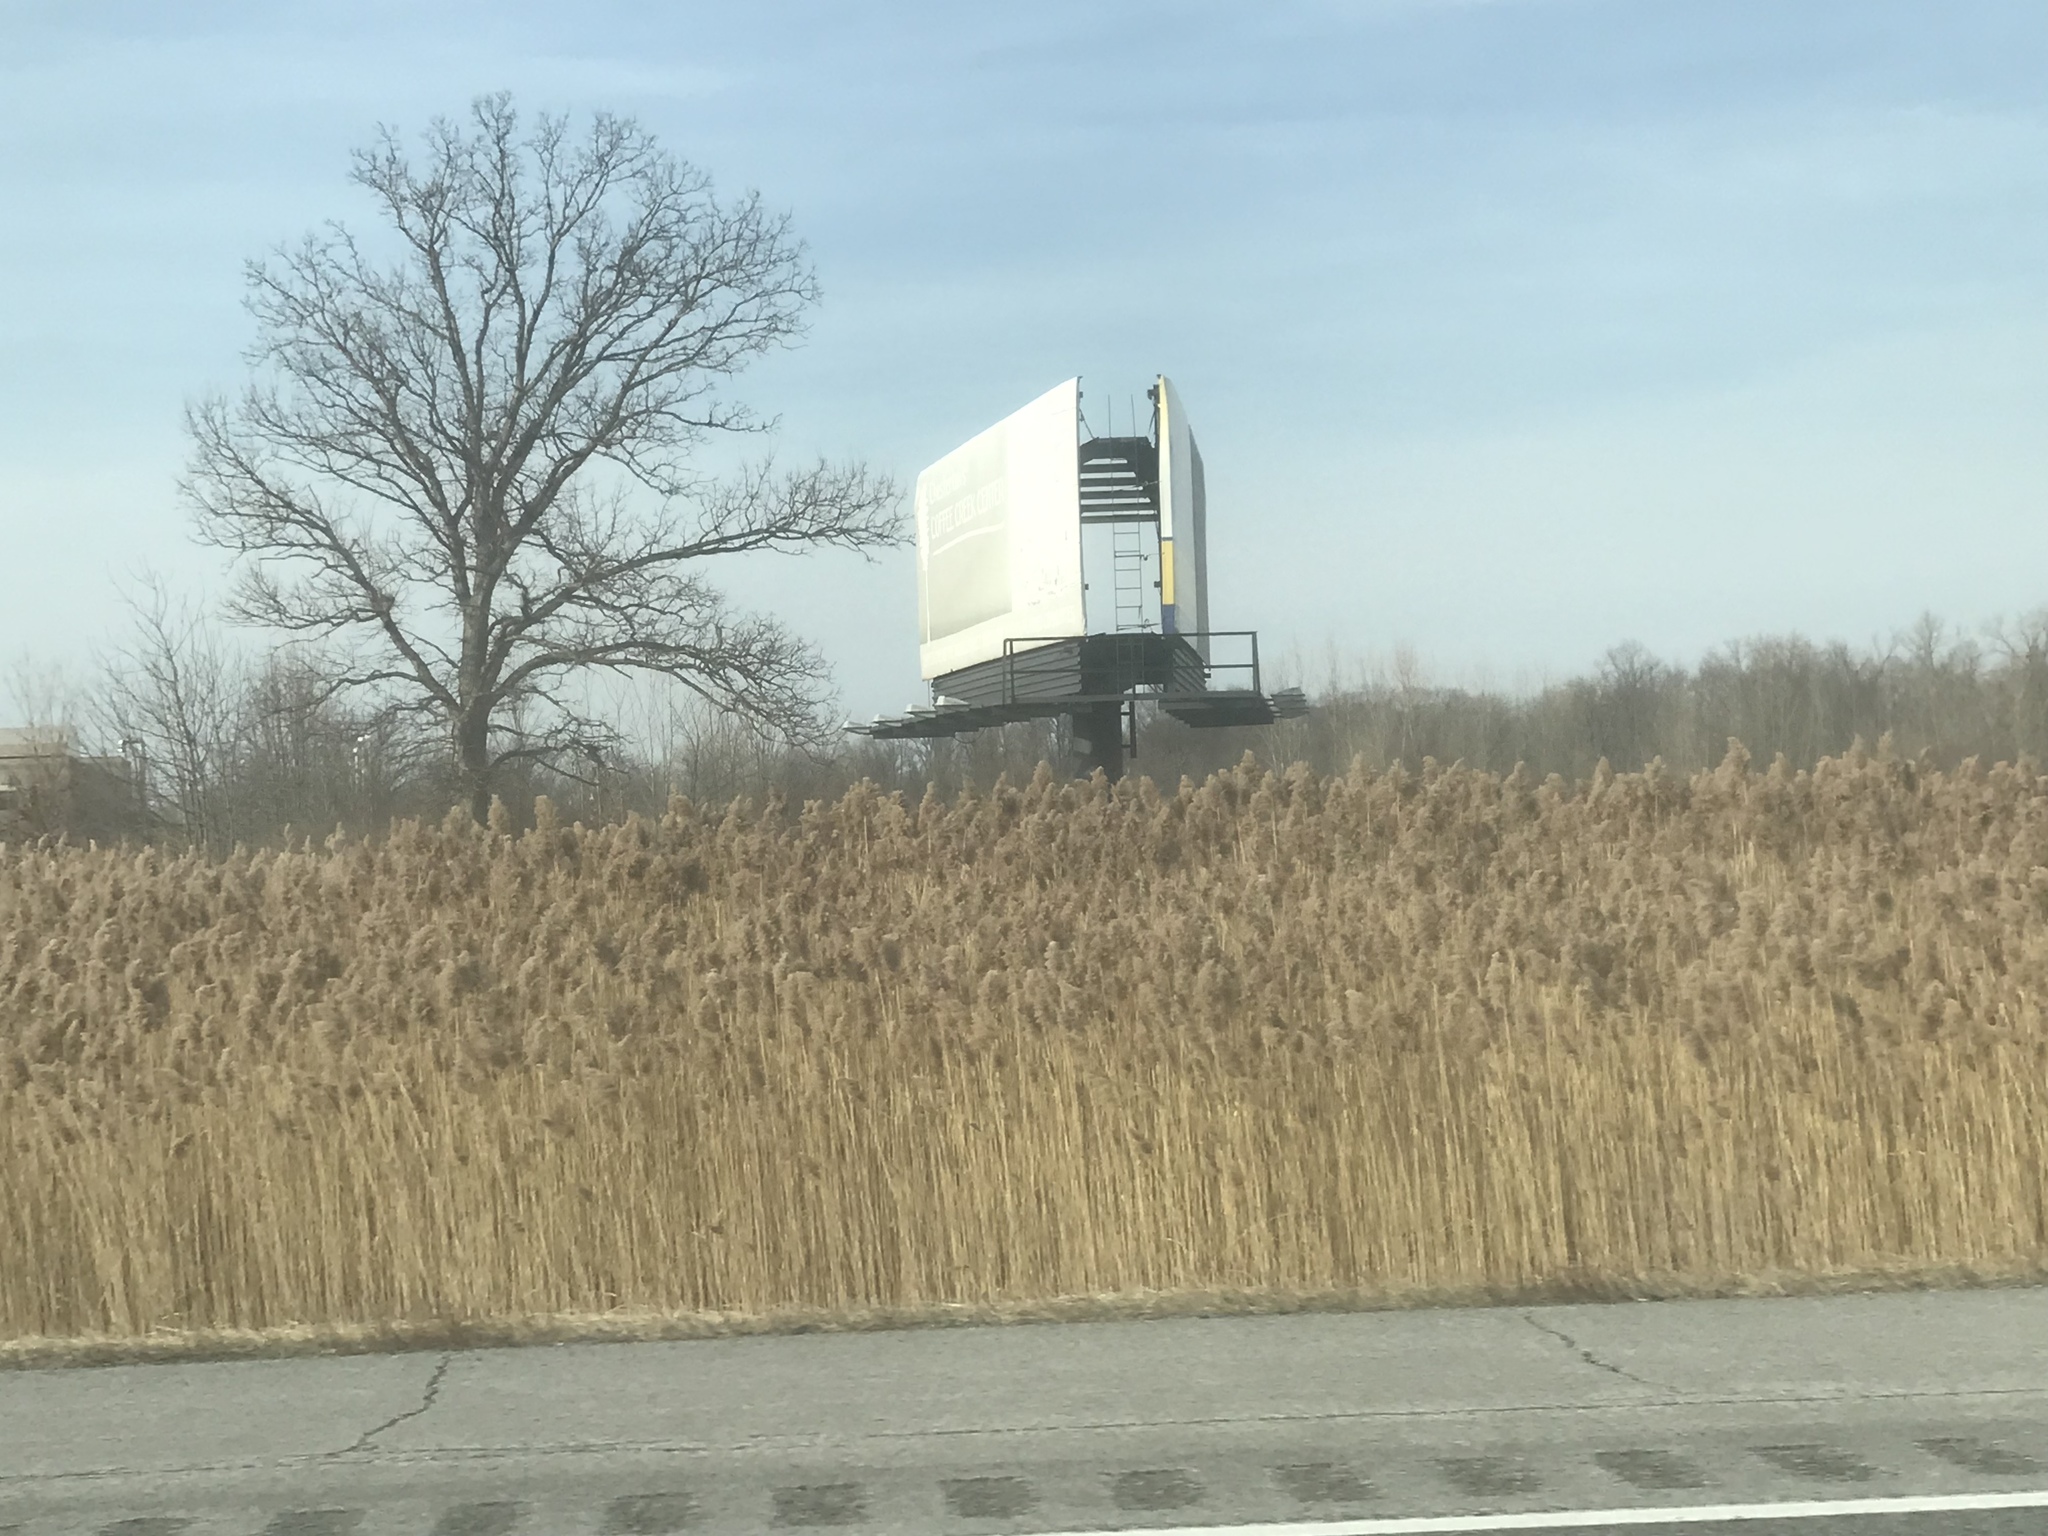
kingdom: Plantae
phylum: Tracheophyta
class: Liliopsida
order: Poales
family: Poaceae
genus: Phragmites
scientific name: Phragmites australis
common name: Common reed
